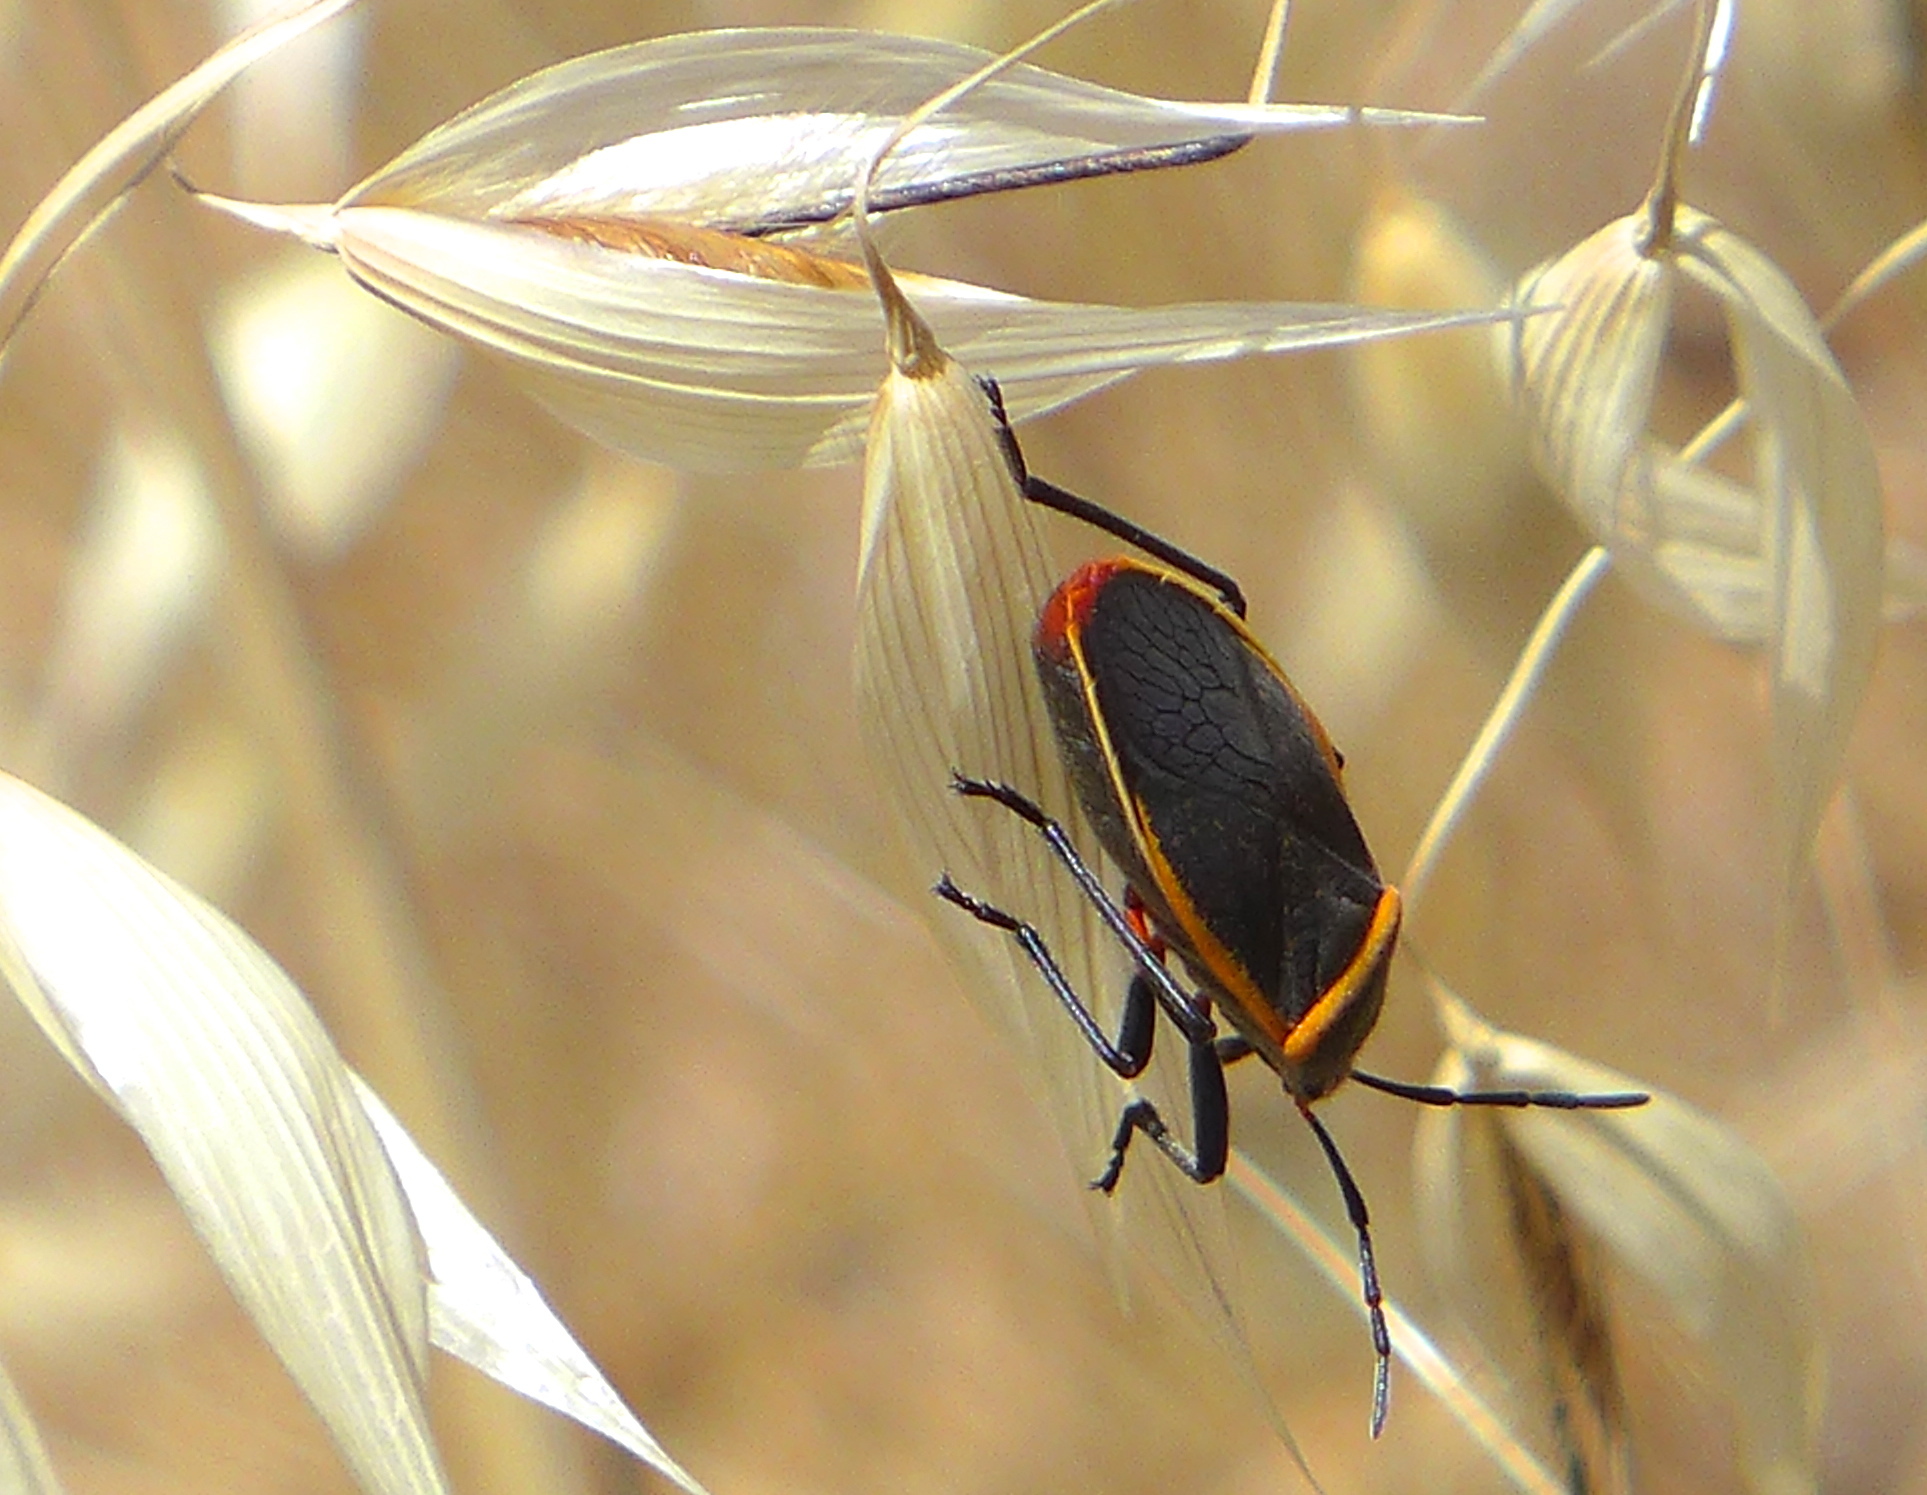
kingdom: Animalia
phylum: Arthropoda
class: Insecta
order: Hemiptera
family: Largidae
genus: Largus
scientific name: Largus californicus
